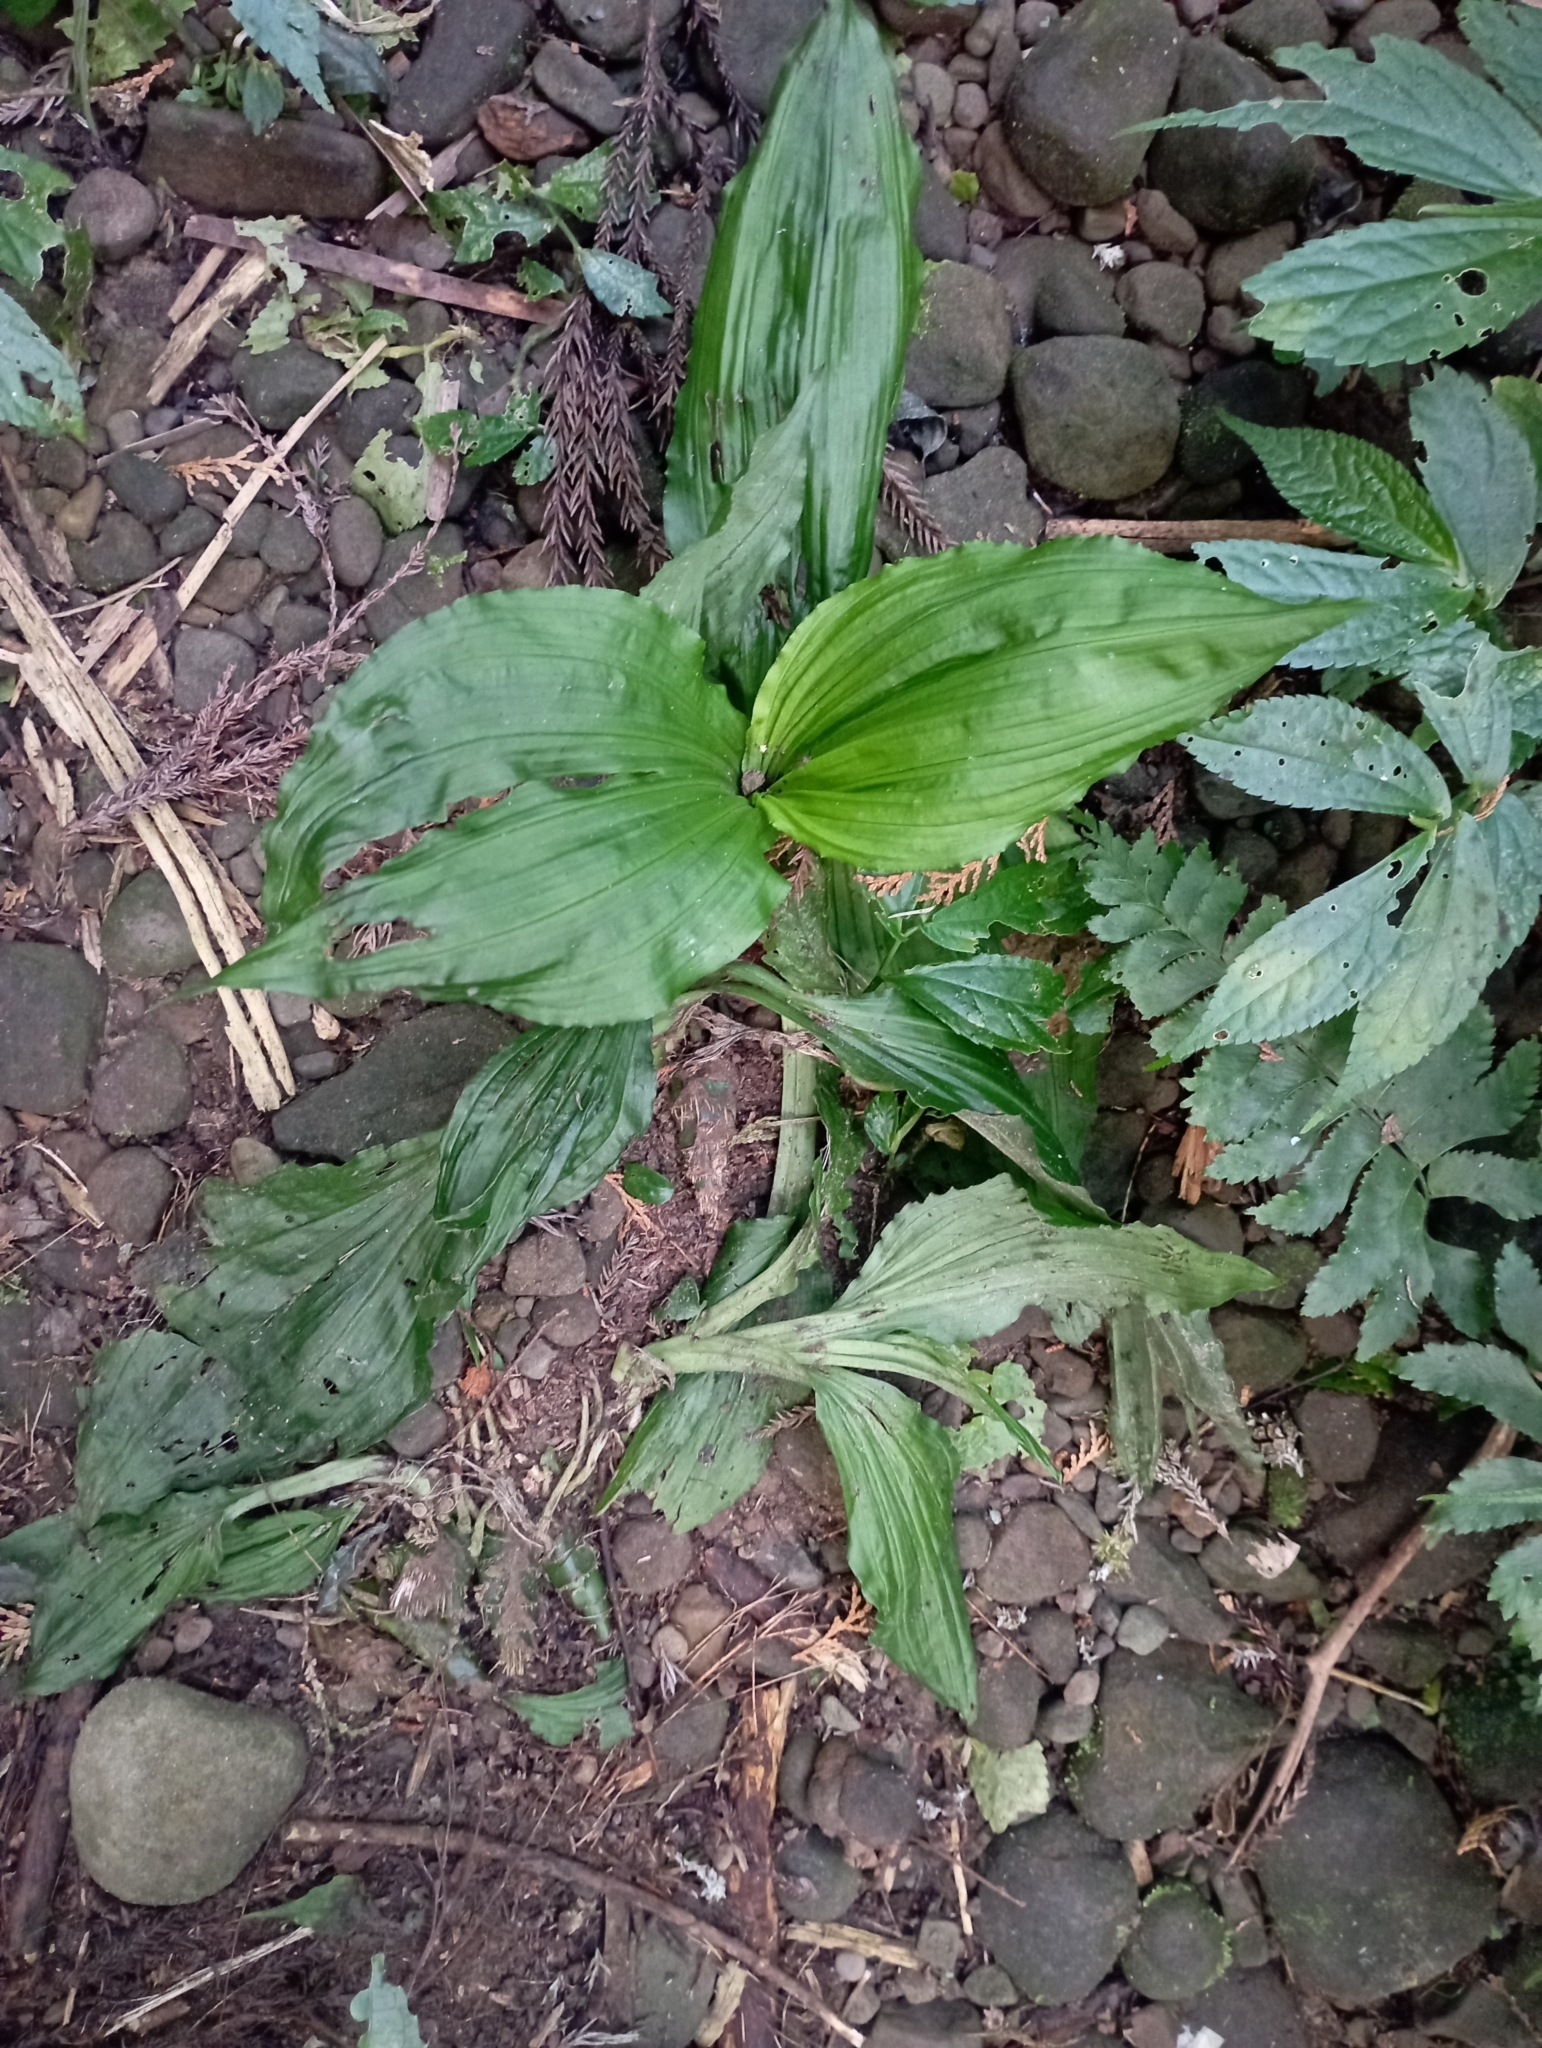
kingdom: Plantae
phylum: Tracheophyta
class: Liliopsida
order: Asparagales
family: Orchidaceae
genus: Calanthe
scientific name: Calanthe masuca
